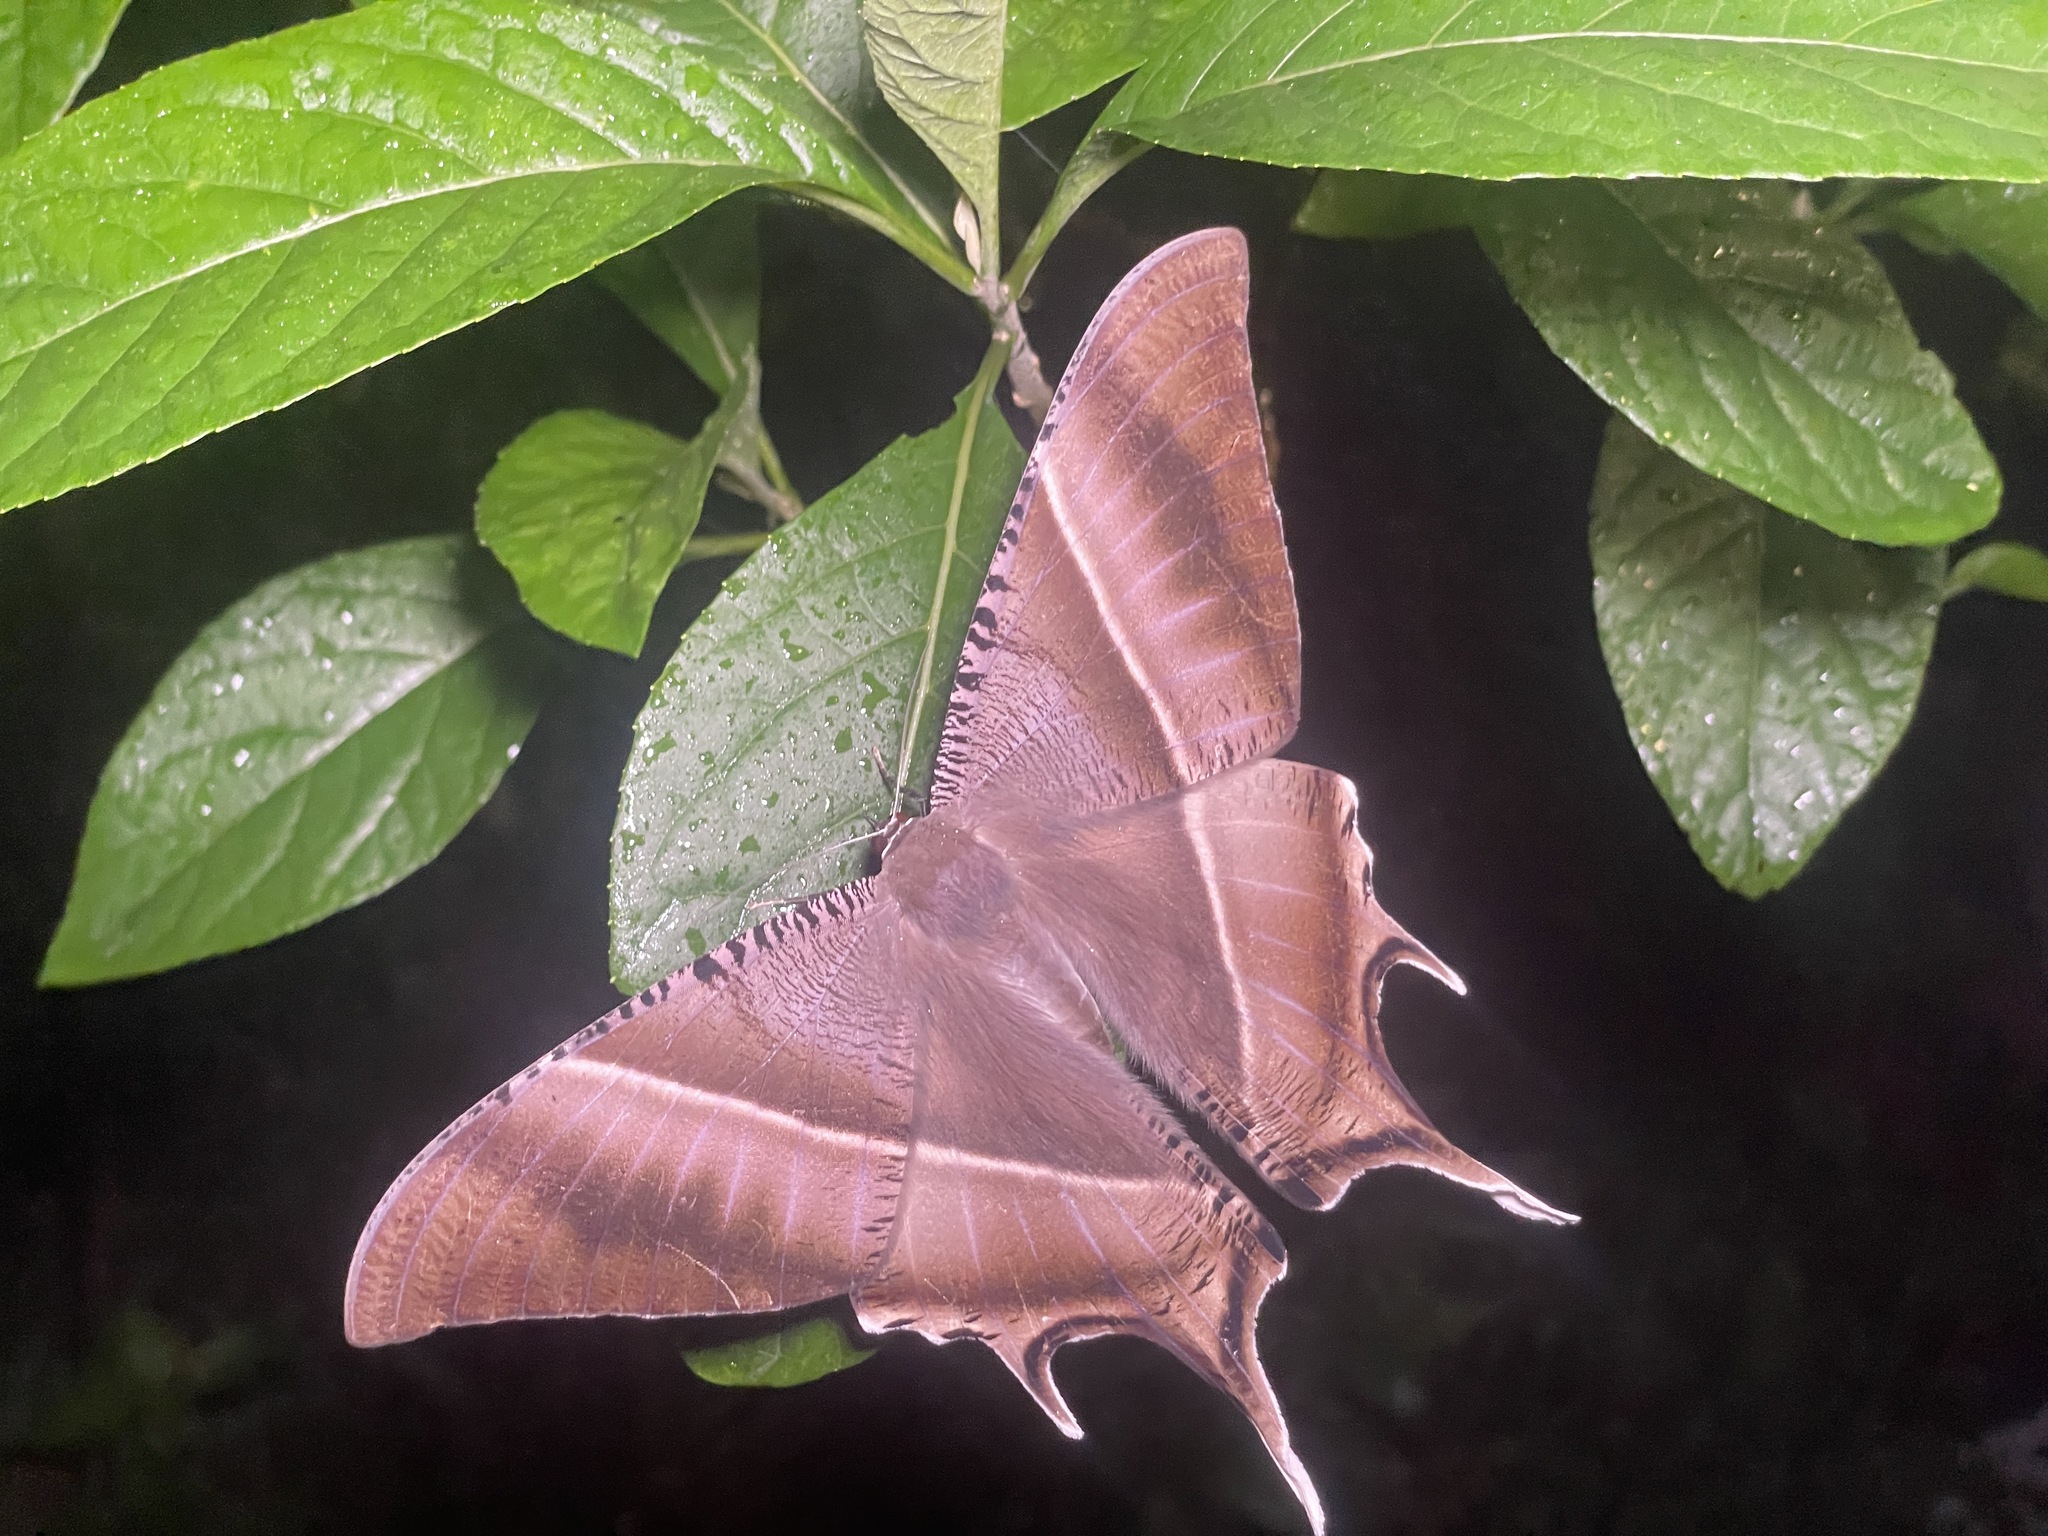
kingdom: Animalia
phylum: Arthropoda
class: Insecta
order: Lepidoptera
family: Uraniidae
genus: Lyssa
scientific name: Lyssa zampa
